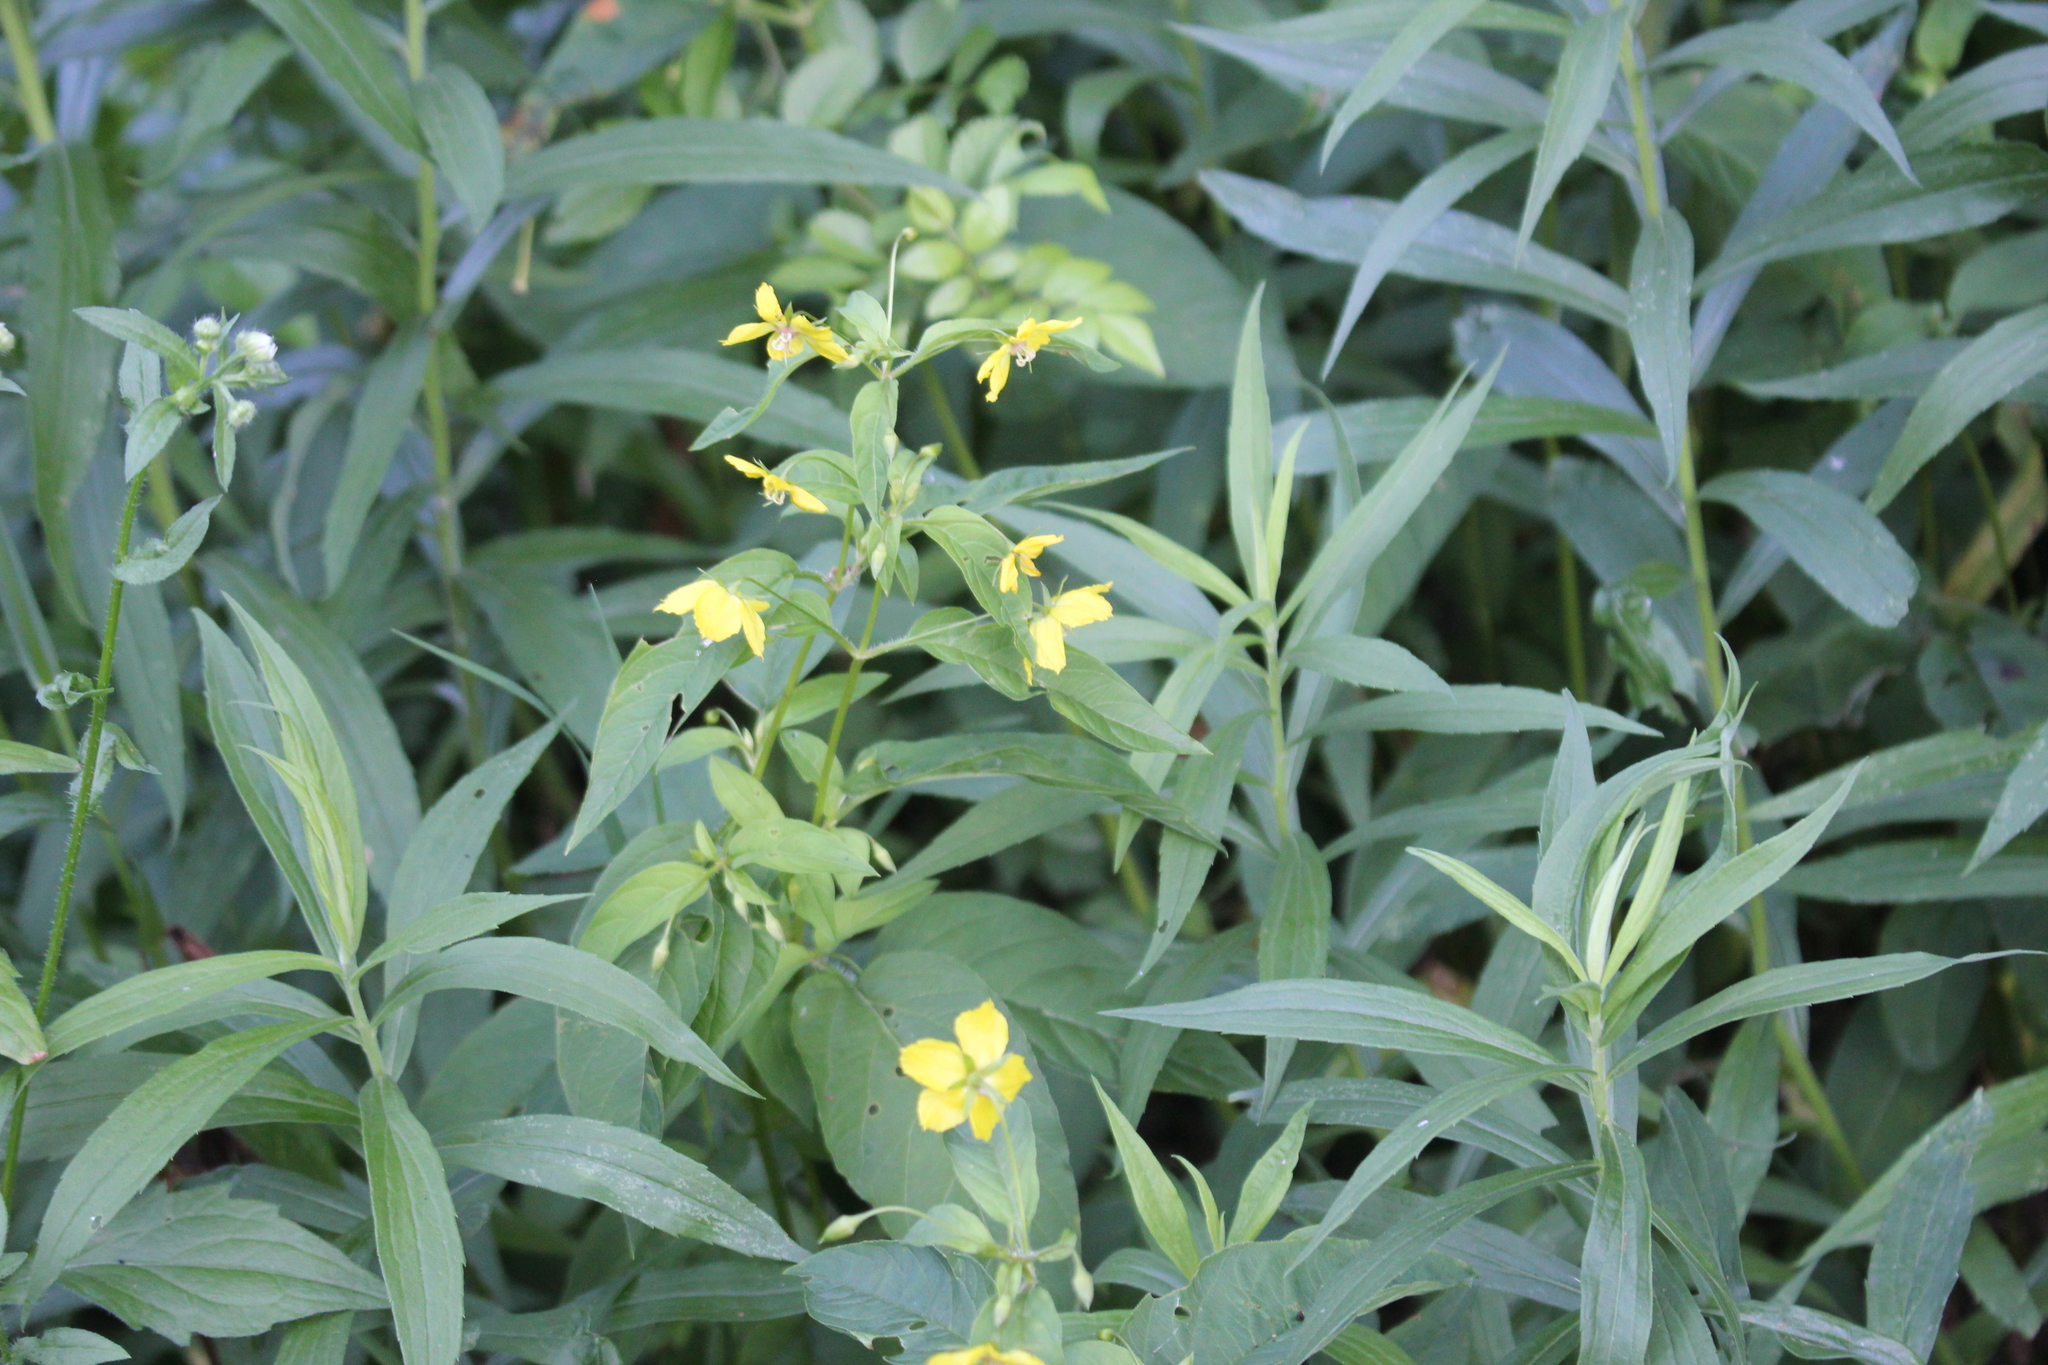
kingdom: Plantae
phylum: Tracheophyta
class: Magnoliopsida
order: Ericales
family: Primulaceae
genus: Lysimachia
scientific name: Lysimachia ciliata
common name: Fringed loosestrife
